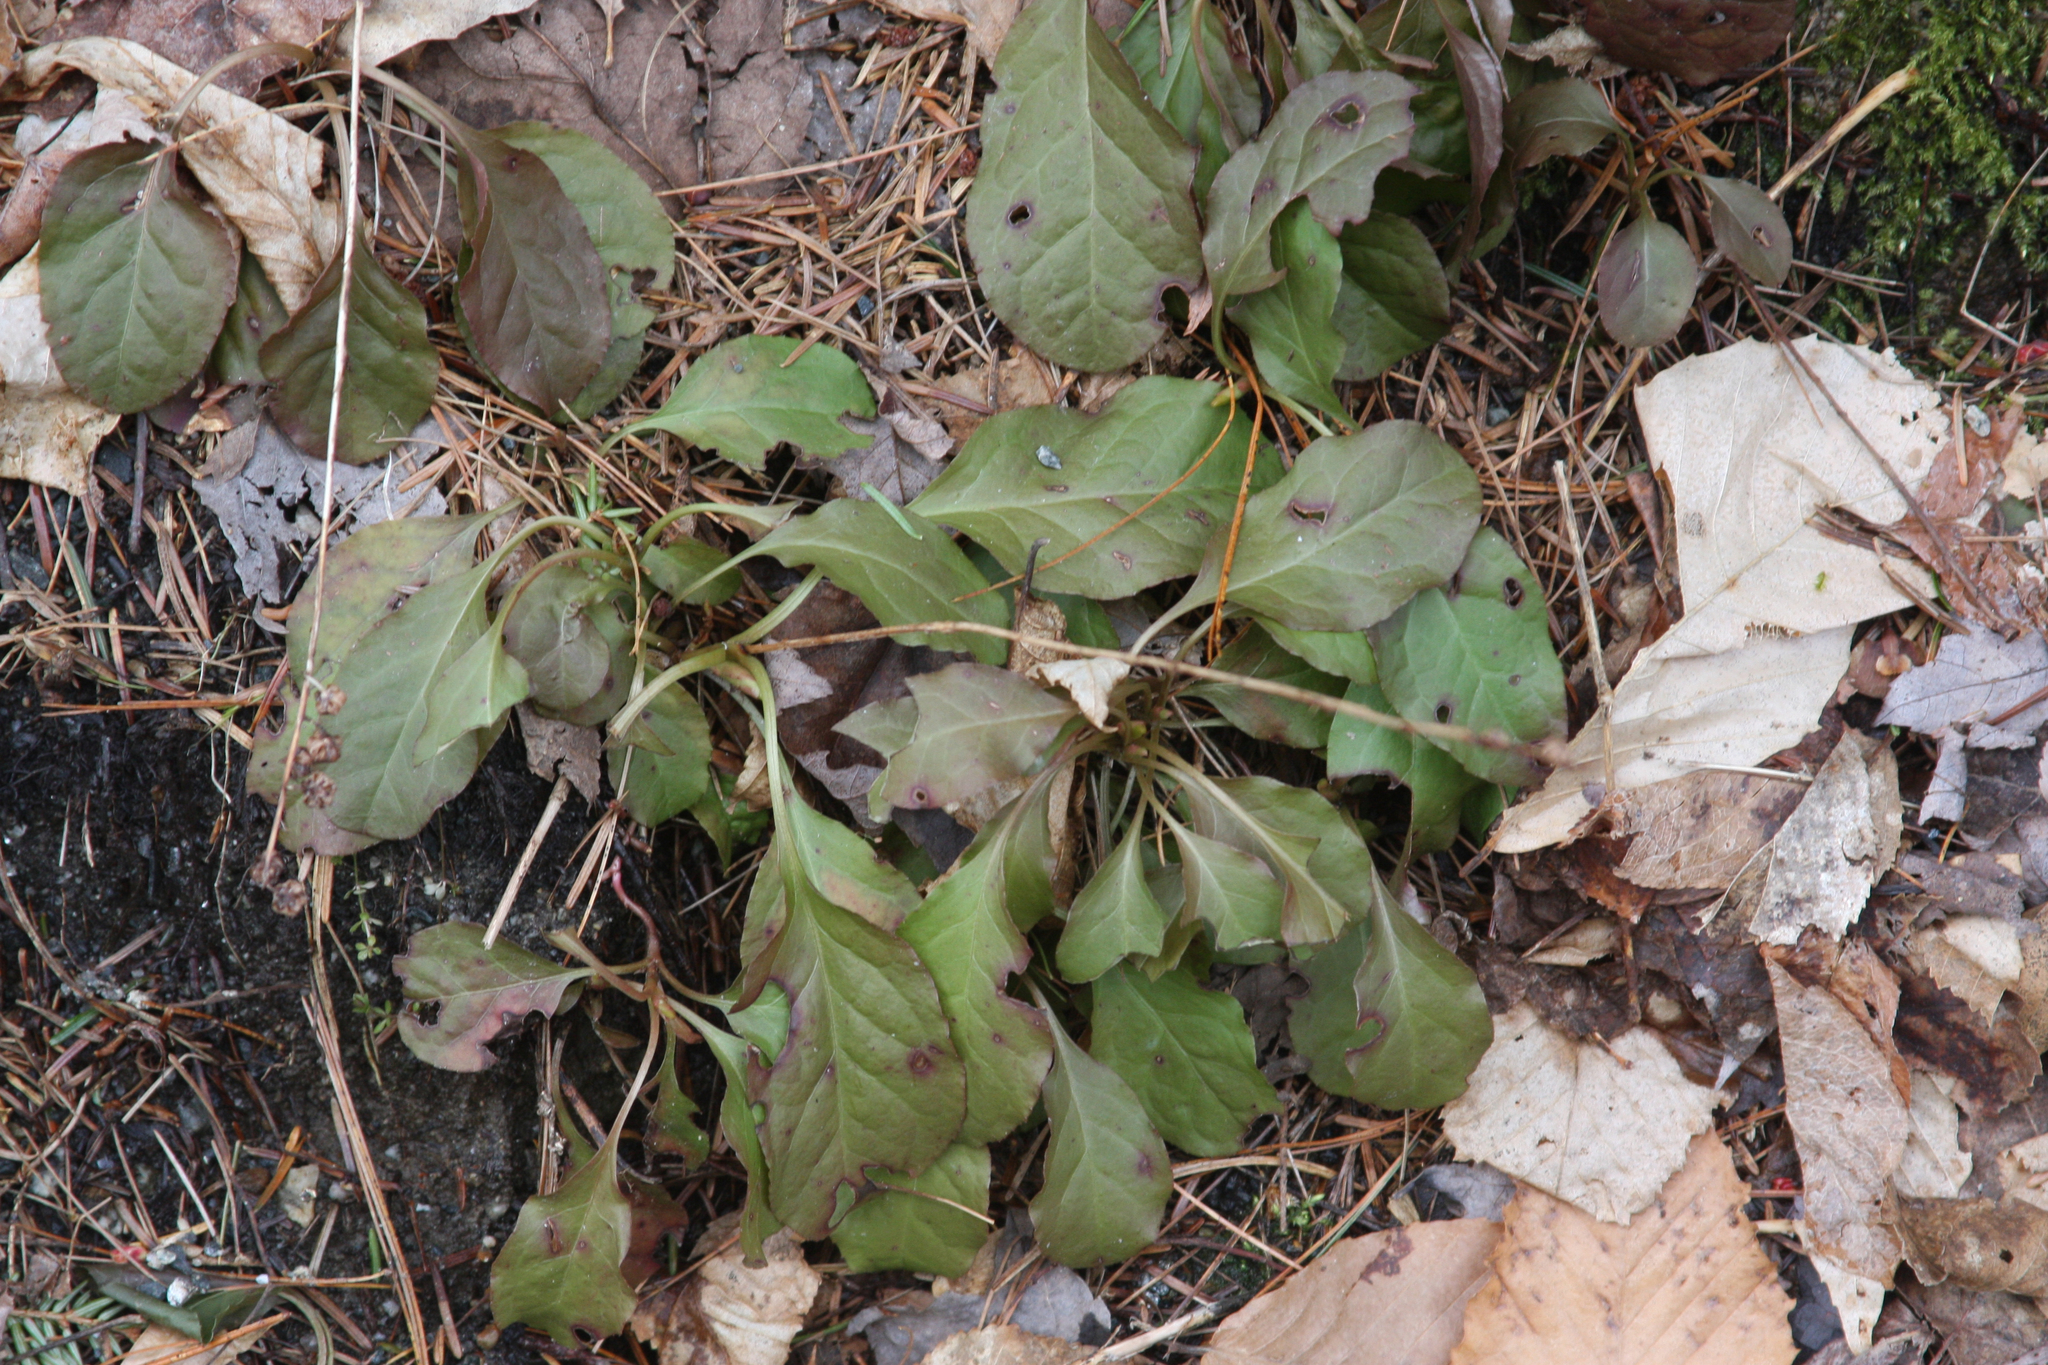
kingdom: Plantae
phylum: Tracheophyta
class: Magnoliopsida
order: Ericales
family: Ericaceae
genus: Pyrola
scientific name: Pyrola elliptica
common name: Shinleaf
